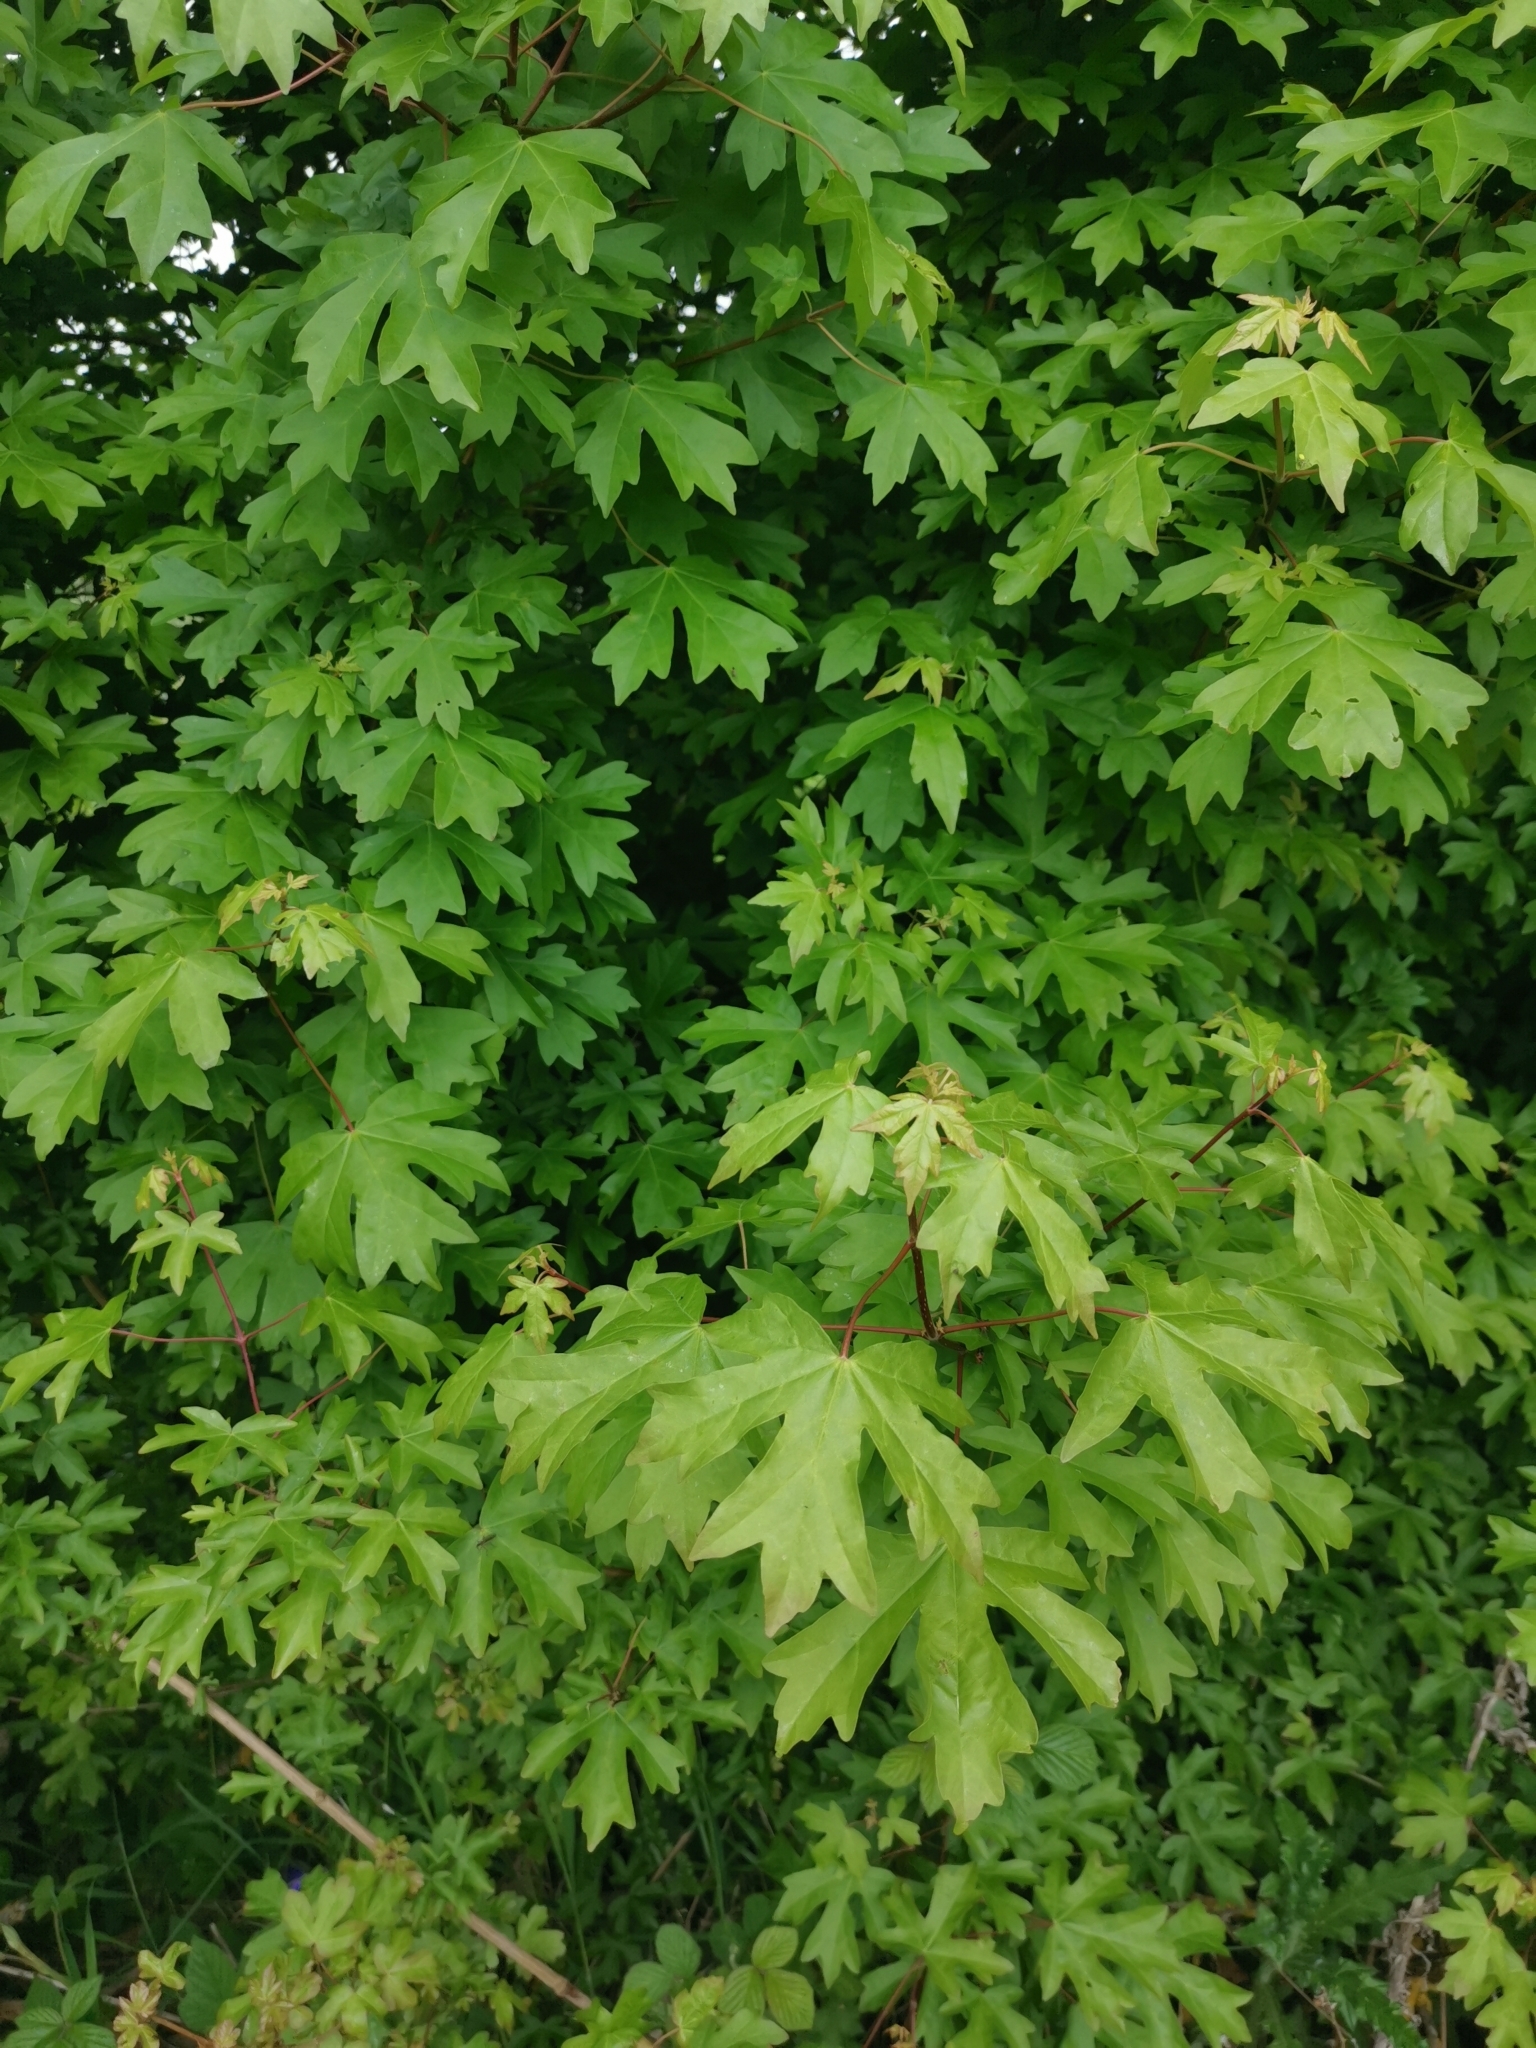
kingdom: Plantae
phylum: Tracheophyta
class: Magnoliopsida
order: Sapindales
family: Sapindaceae
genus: Acer
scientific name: Acer campestre
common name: Field maple
